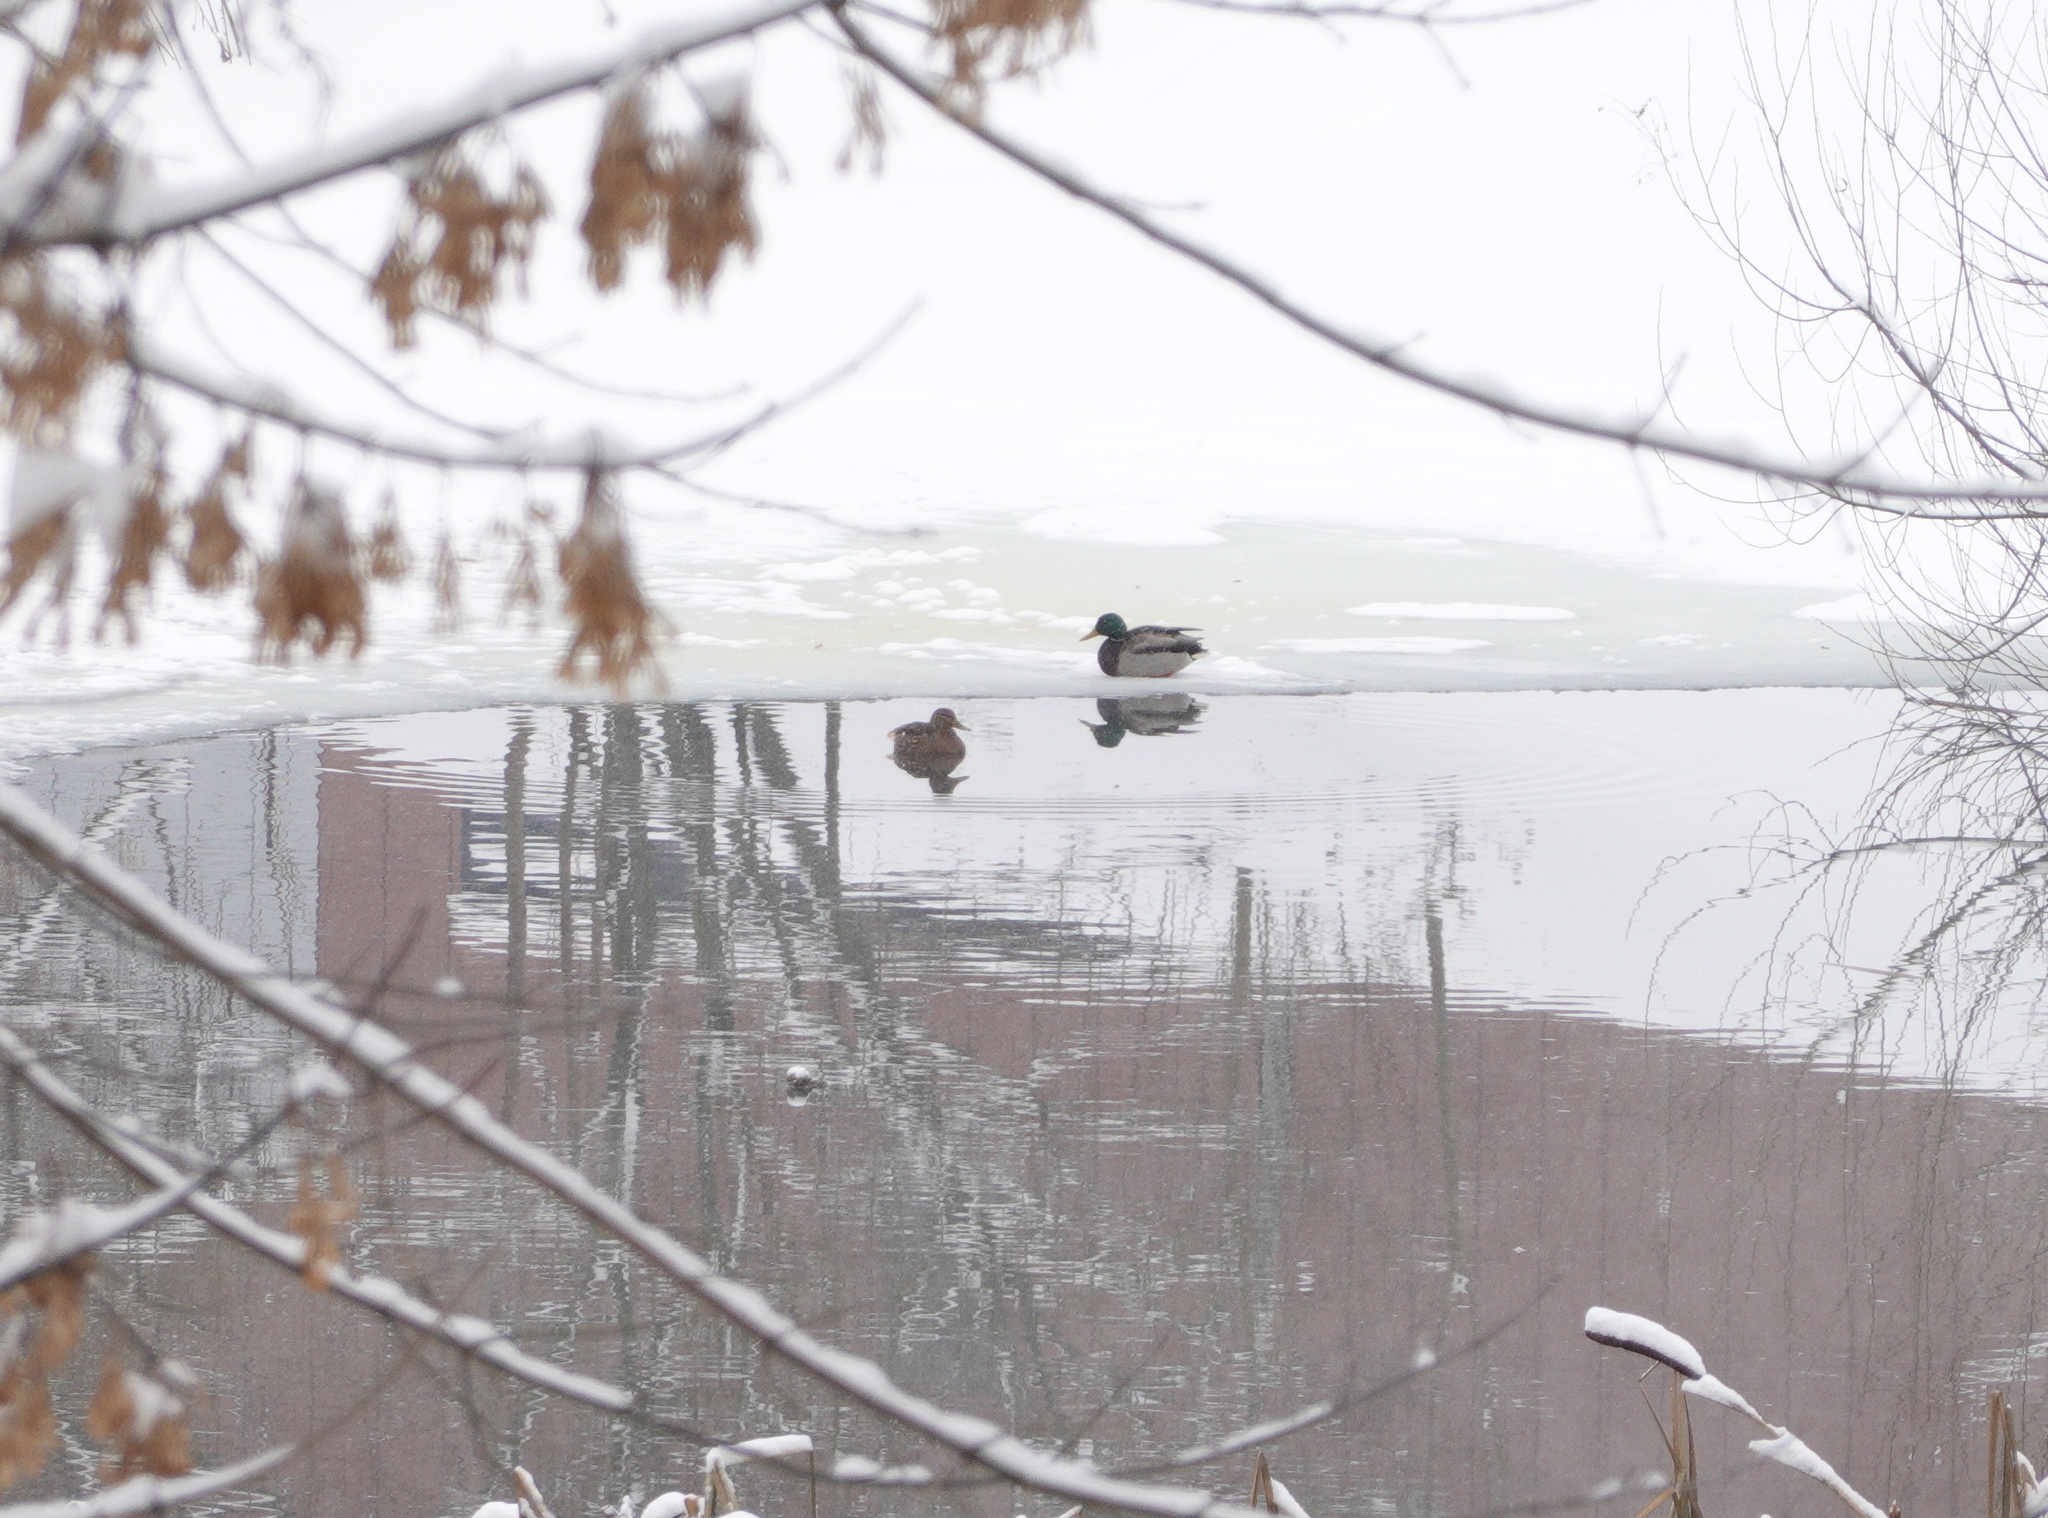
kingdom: Animalia
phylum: Chordata
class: Aves
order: Anseriformes
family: Anatidae
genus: Anas
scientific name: Anas platyrhynchos
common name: Mallard
